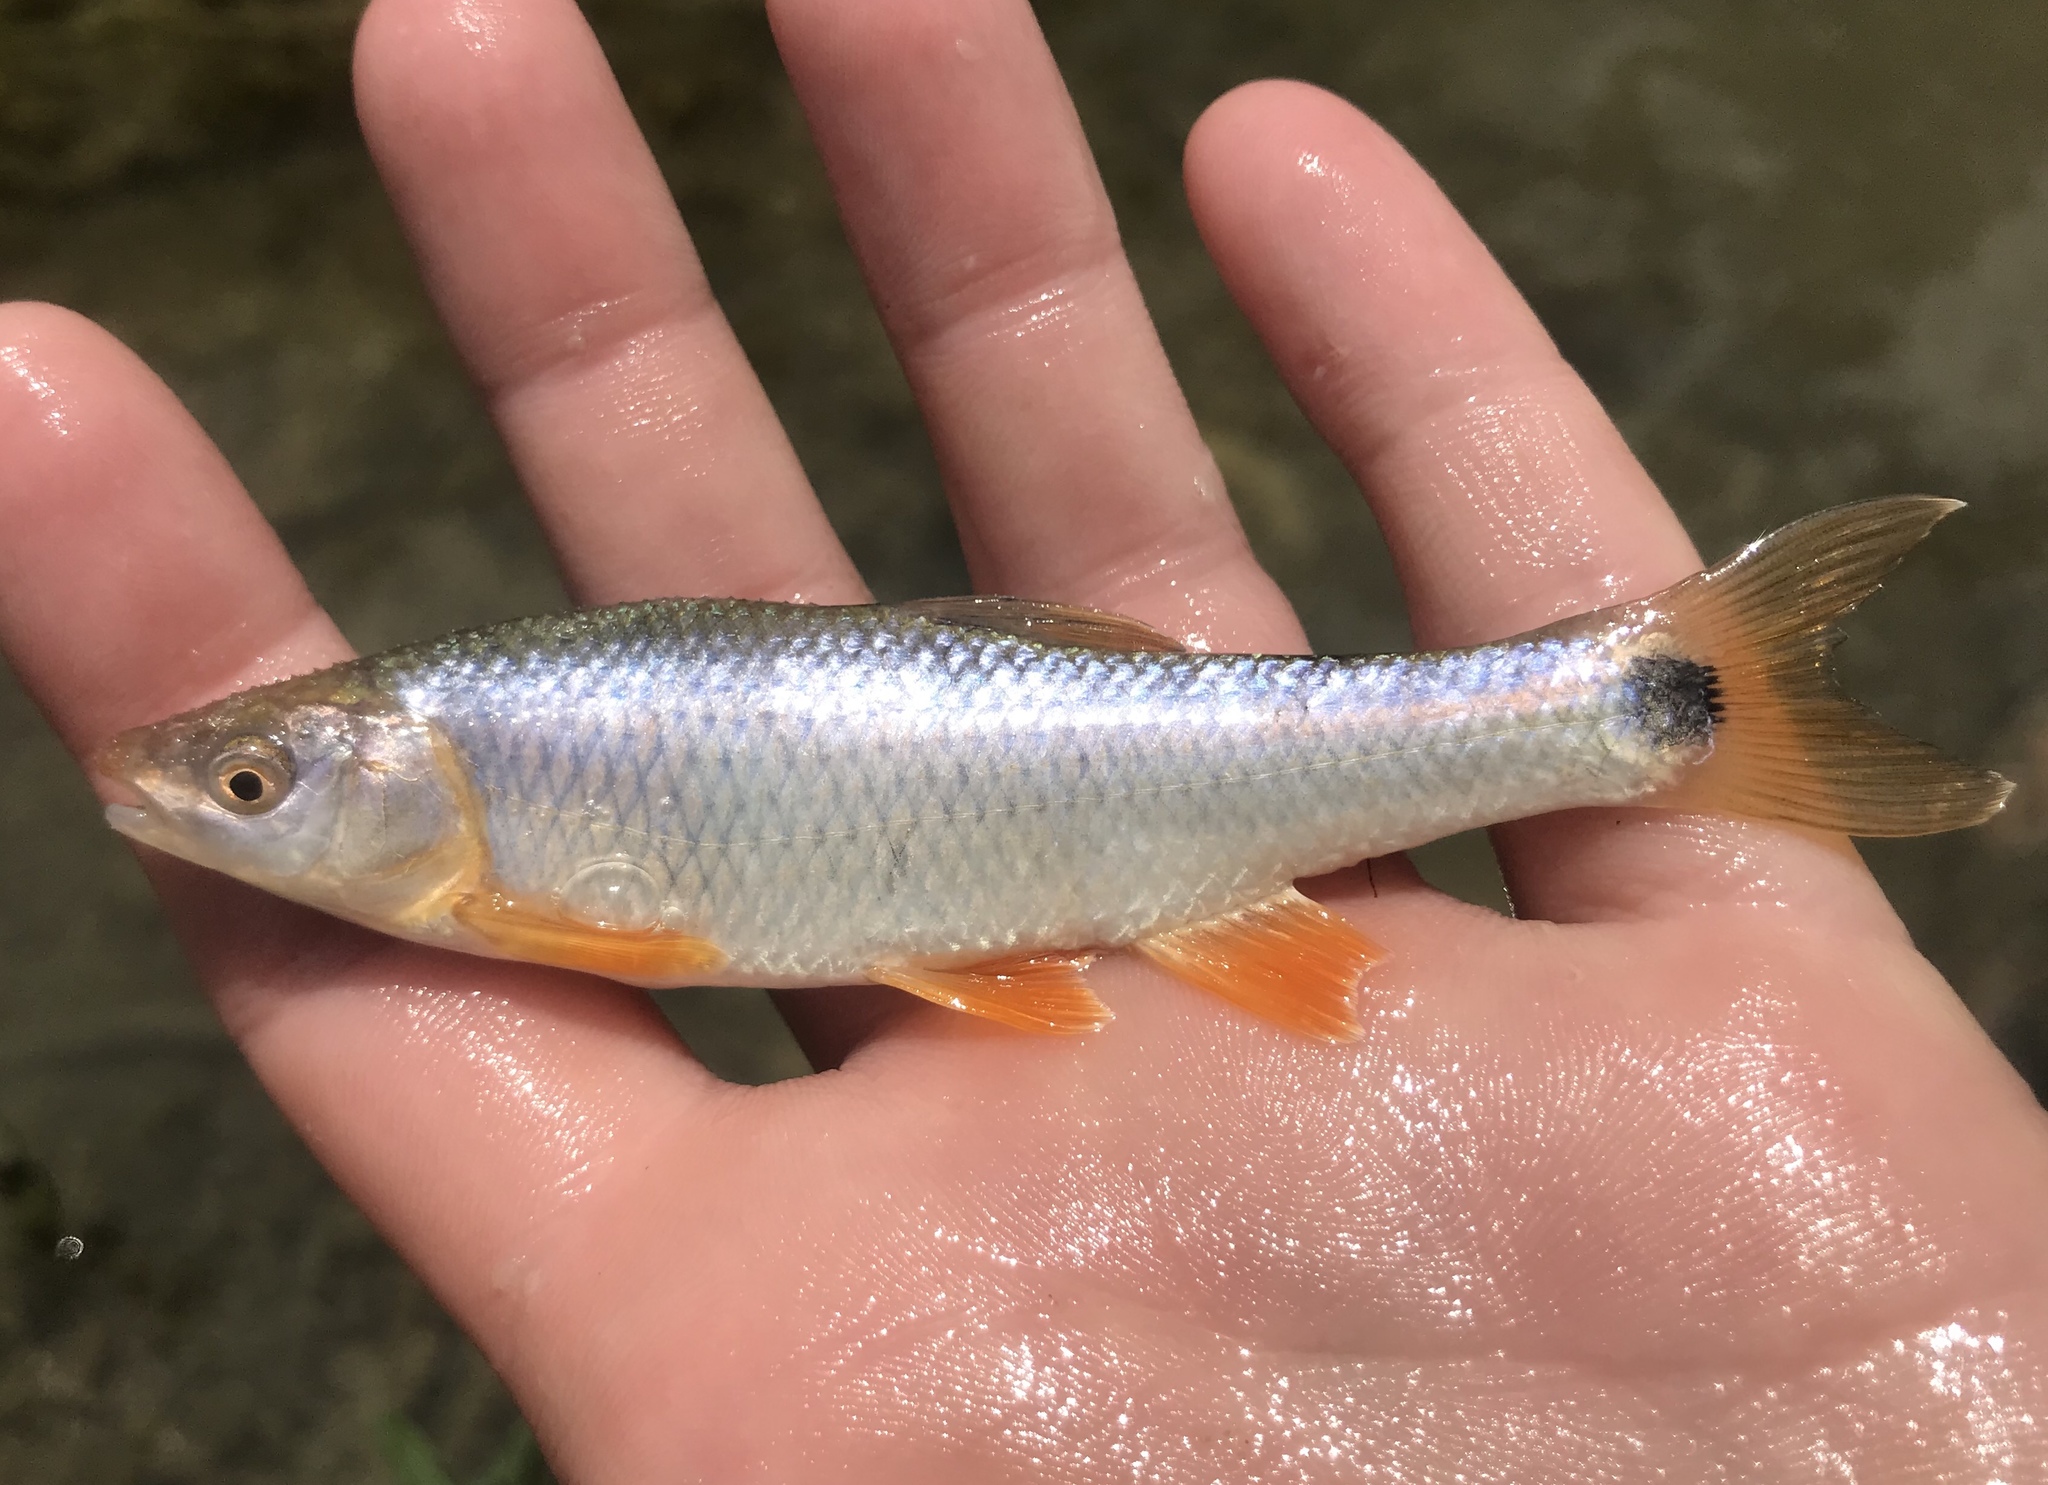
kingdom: Animalia
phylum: Chordata
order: Cypriniformes
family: Cyprinidae
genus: Cyprinella
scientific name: Cyprinella venusta
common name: Blacktail shiner
